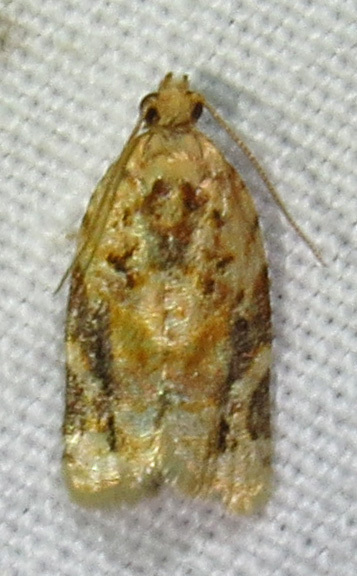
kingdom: Animalia
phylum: Arthropoda
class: Insecta
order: Lepidoptera
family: Tortricidae
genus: Argyrotaenia
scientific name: Argyrotaenia velutinana
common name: Red-banded leafroller moth
